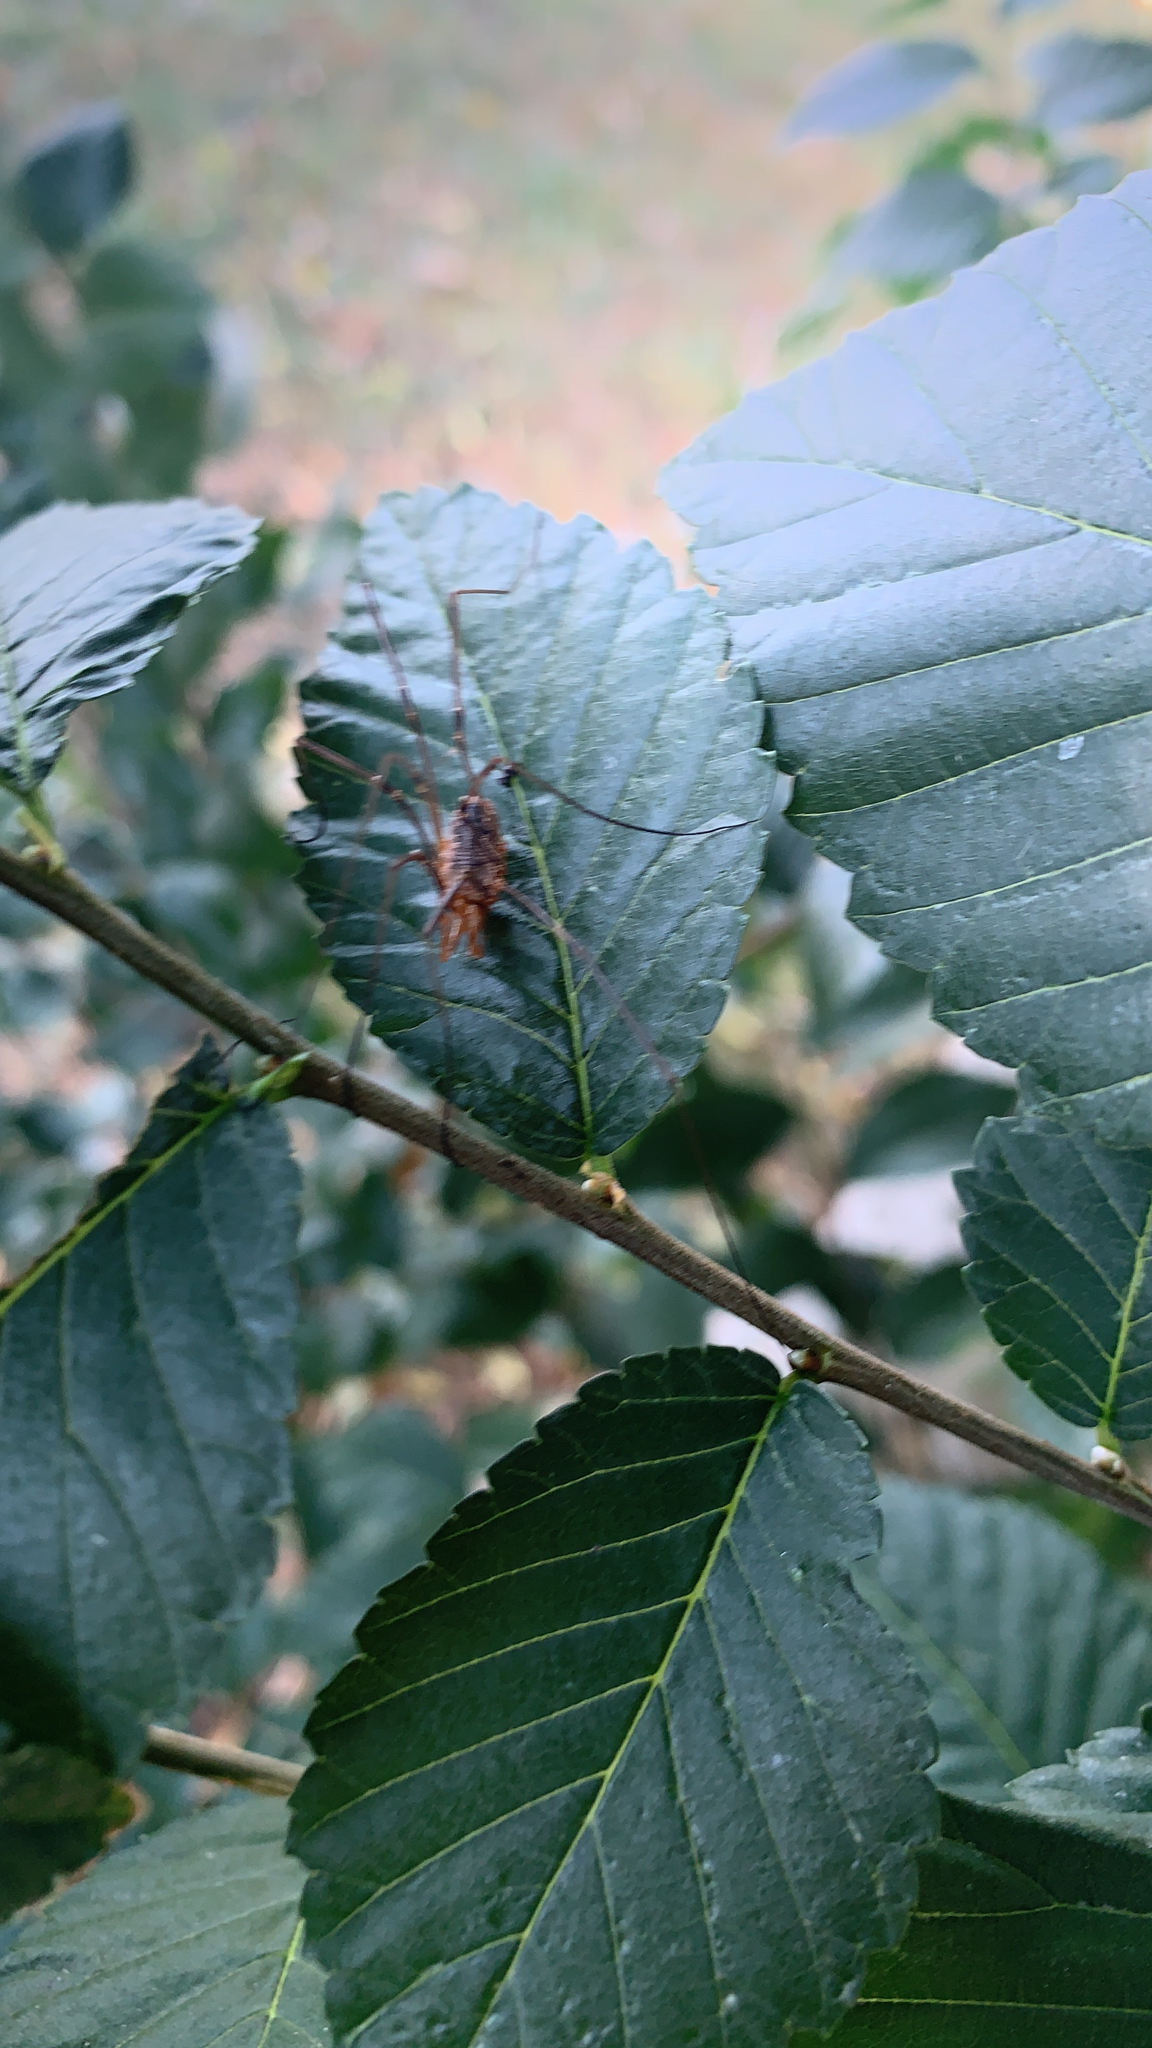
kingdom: Animalia
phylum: Arthropoda
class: Arachnida
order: Opiliones
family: Phalangiidae
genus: Phalangium
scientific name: Phalangium opilio
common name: Daddy longleg
